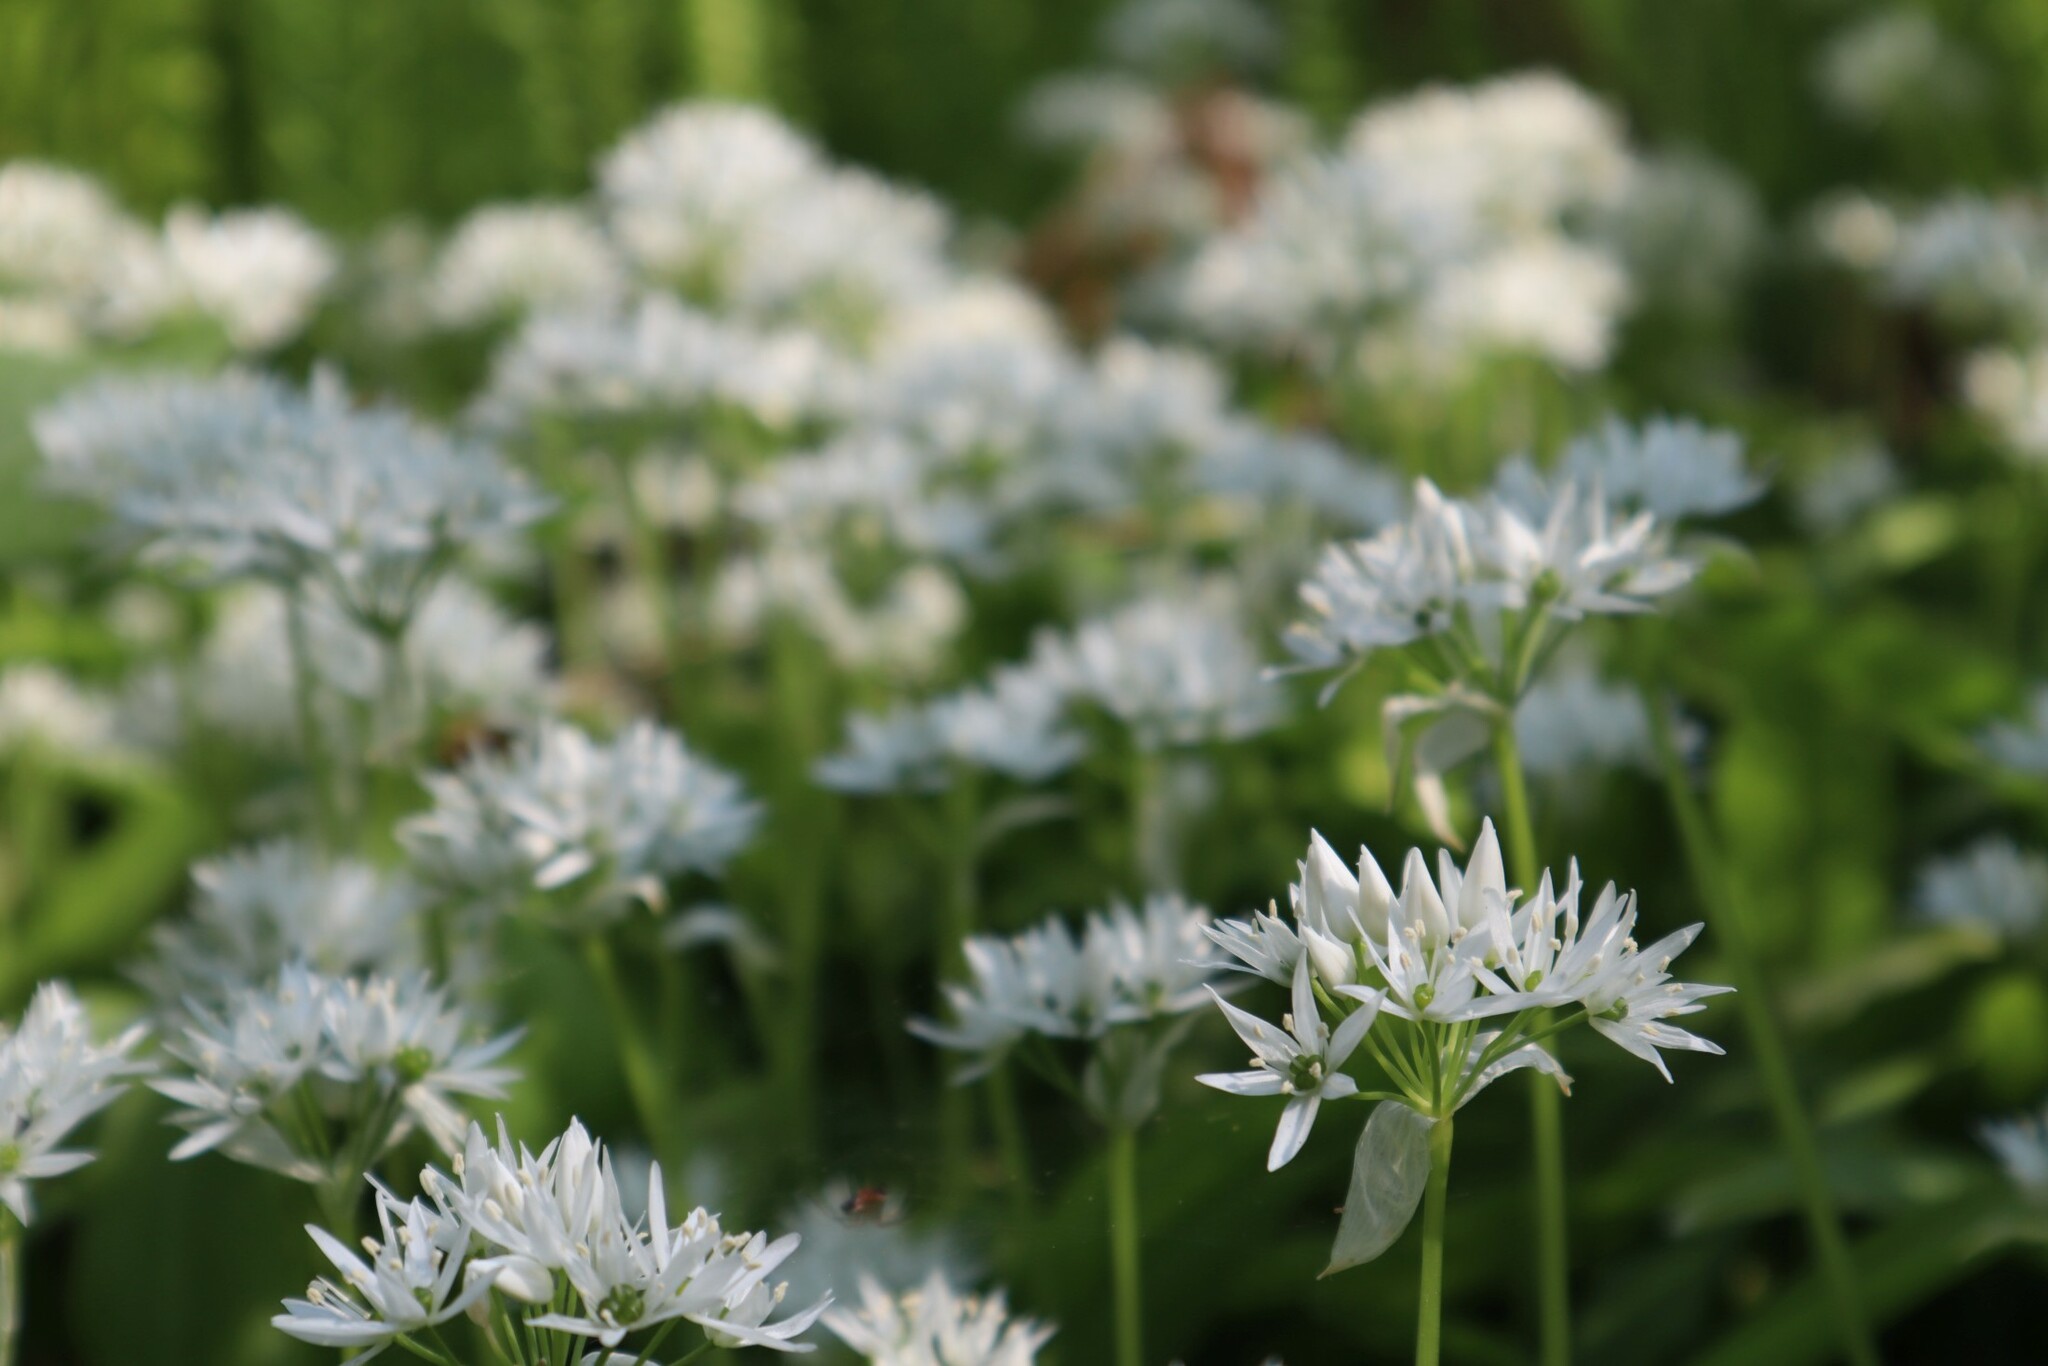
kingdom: Plantae
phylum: Tracheophyta
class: Liliopsida
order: Asparagales
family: Amaryllidaceae
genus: Allium
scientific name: Allium ursinum
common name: Ramsons
